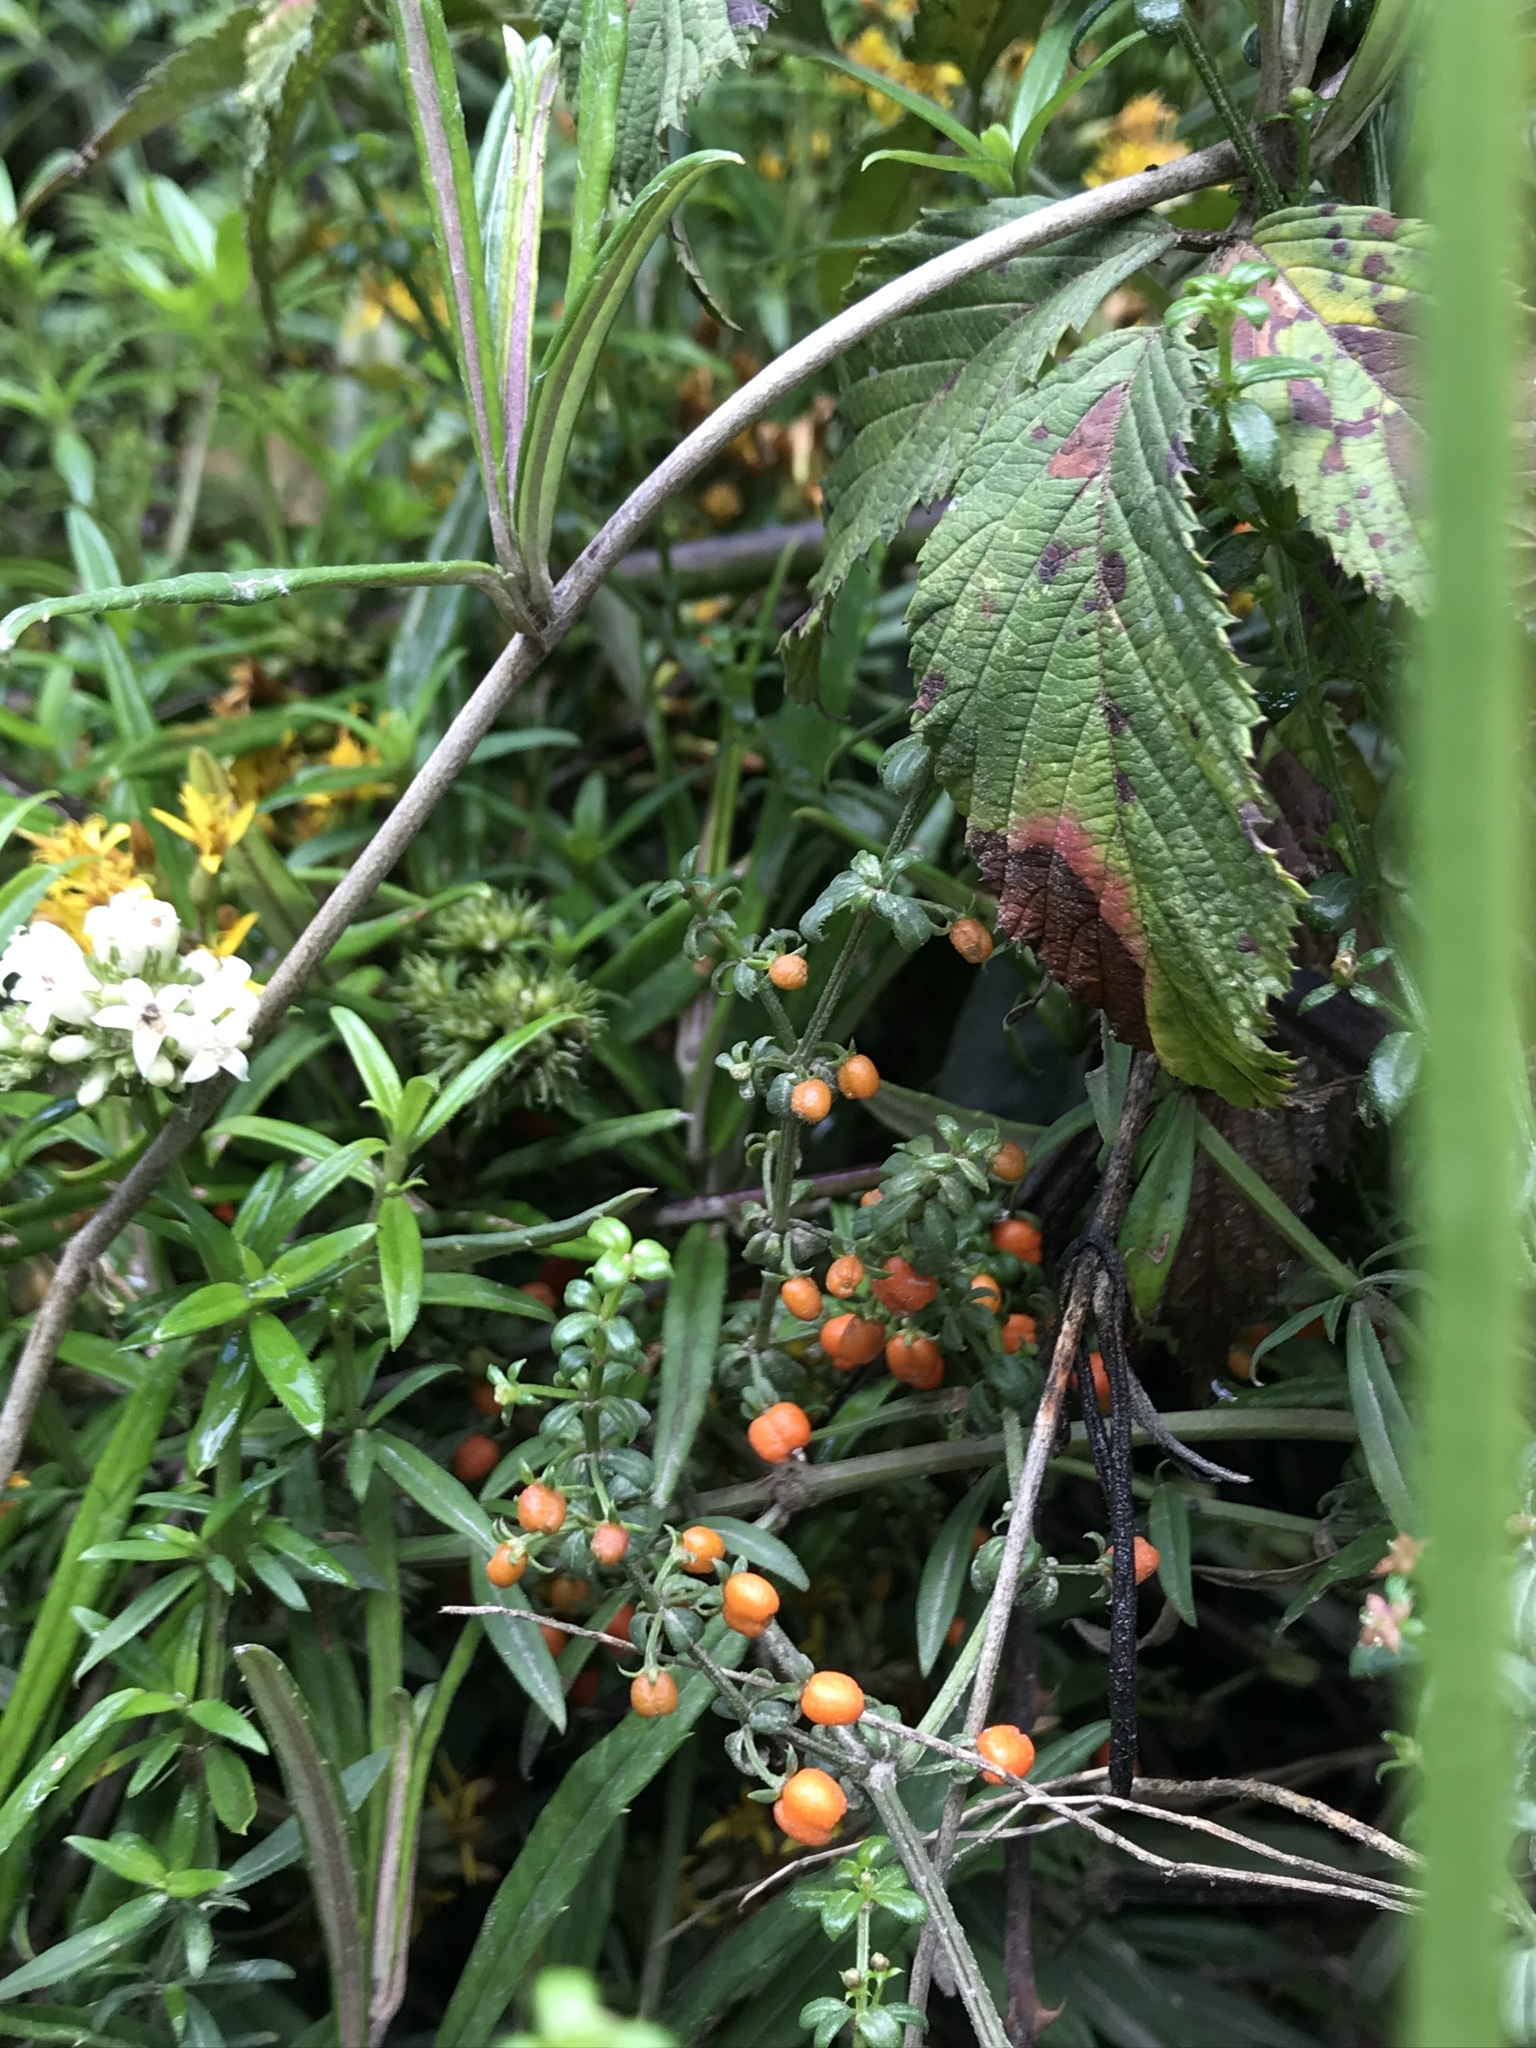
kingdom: Plantae
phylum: Tracheophyta
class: Magnoliopsida
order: Gentianales
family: Rubiaceae
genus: Galium
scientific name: Galium hypocarpium
